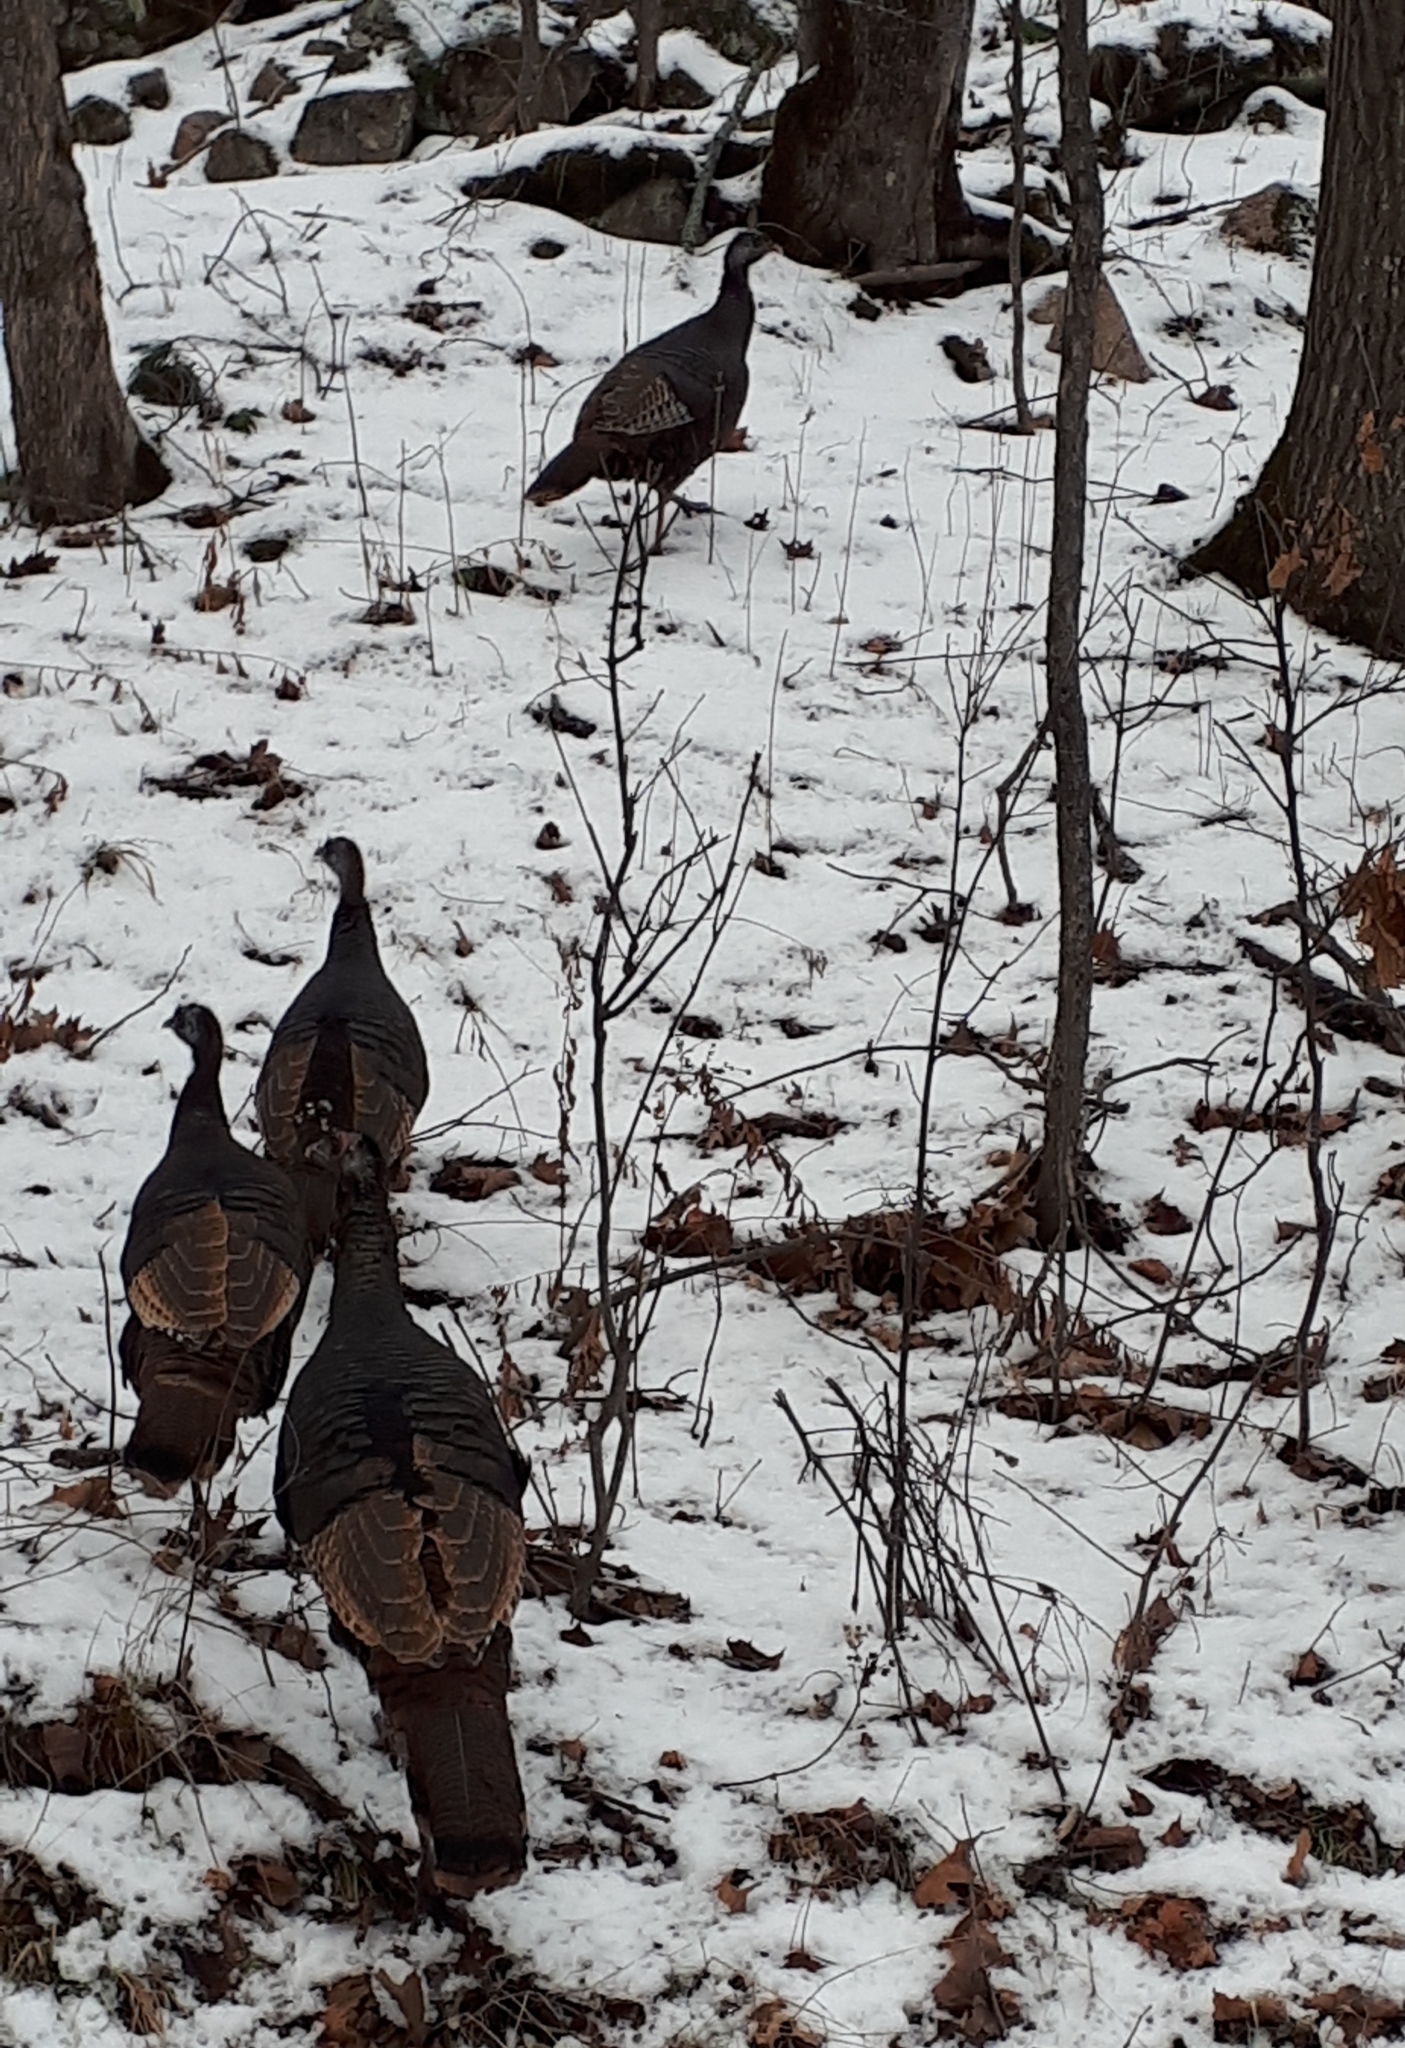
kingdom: Animalia
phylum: Chordata
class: Aves
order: Galliformes
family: Phasianidae
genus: Meleagris
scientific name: Meleagris gallopavo
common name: Wild turkey
